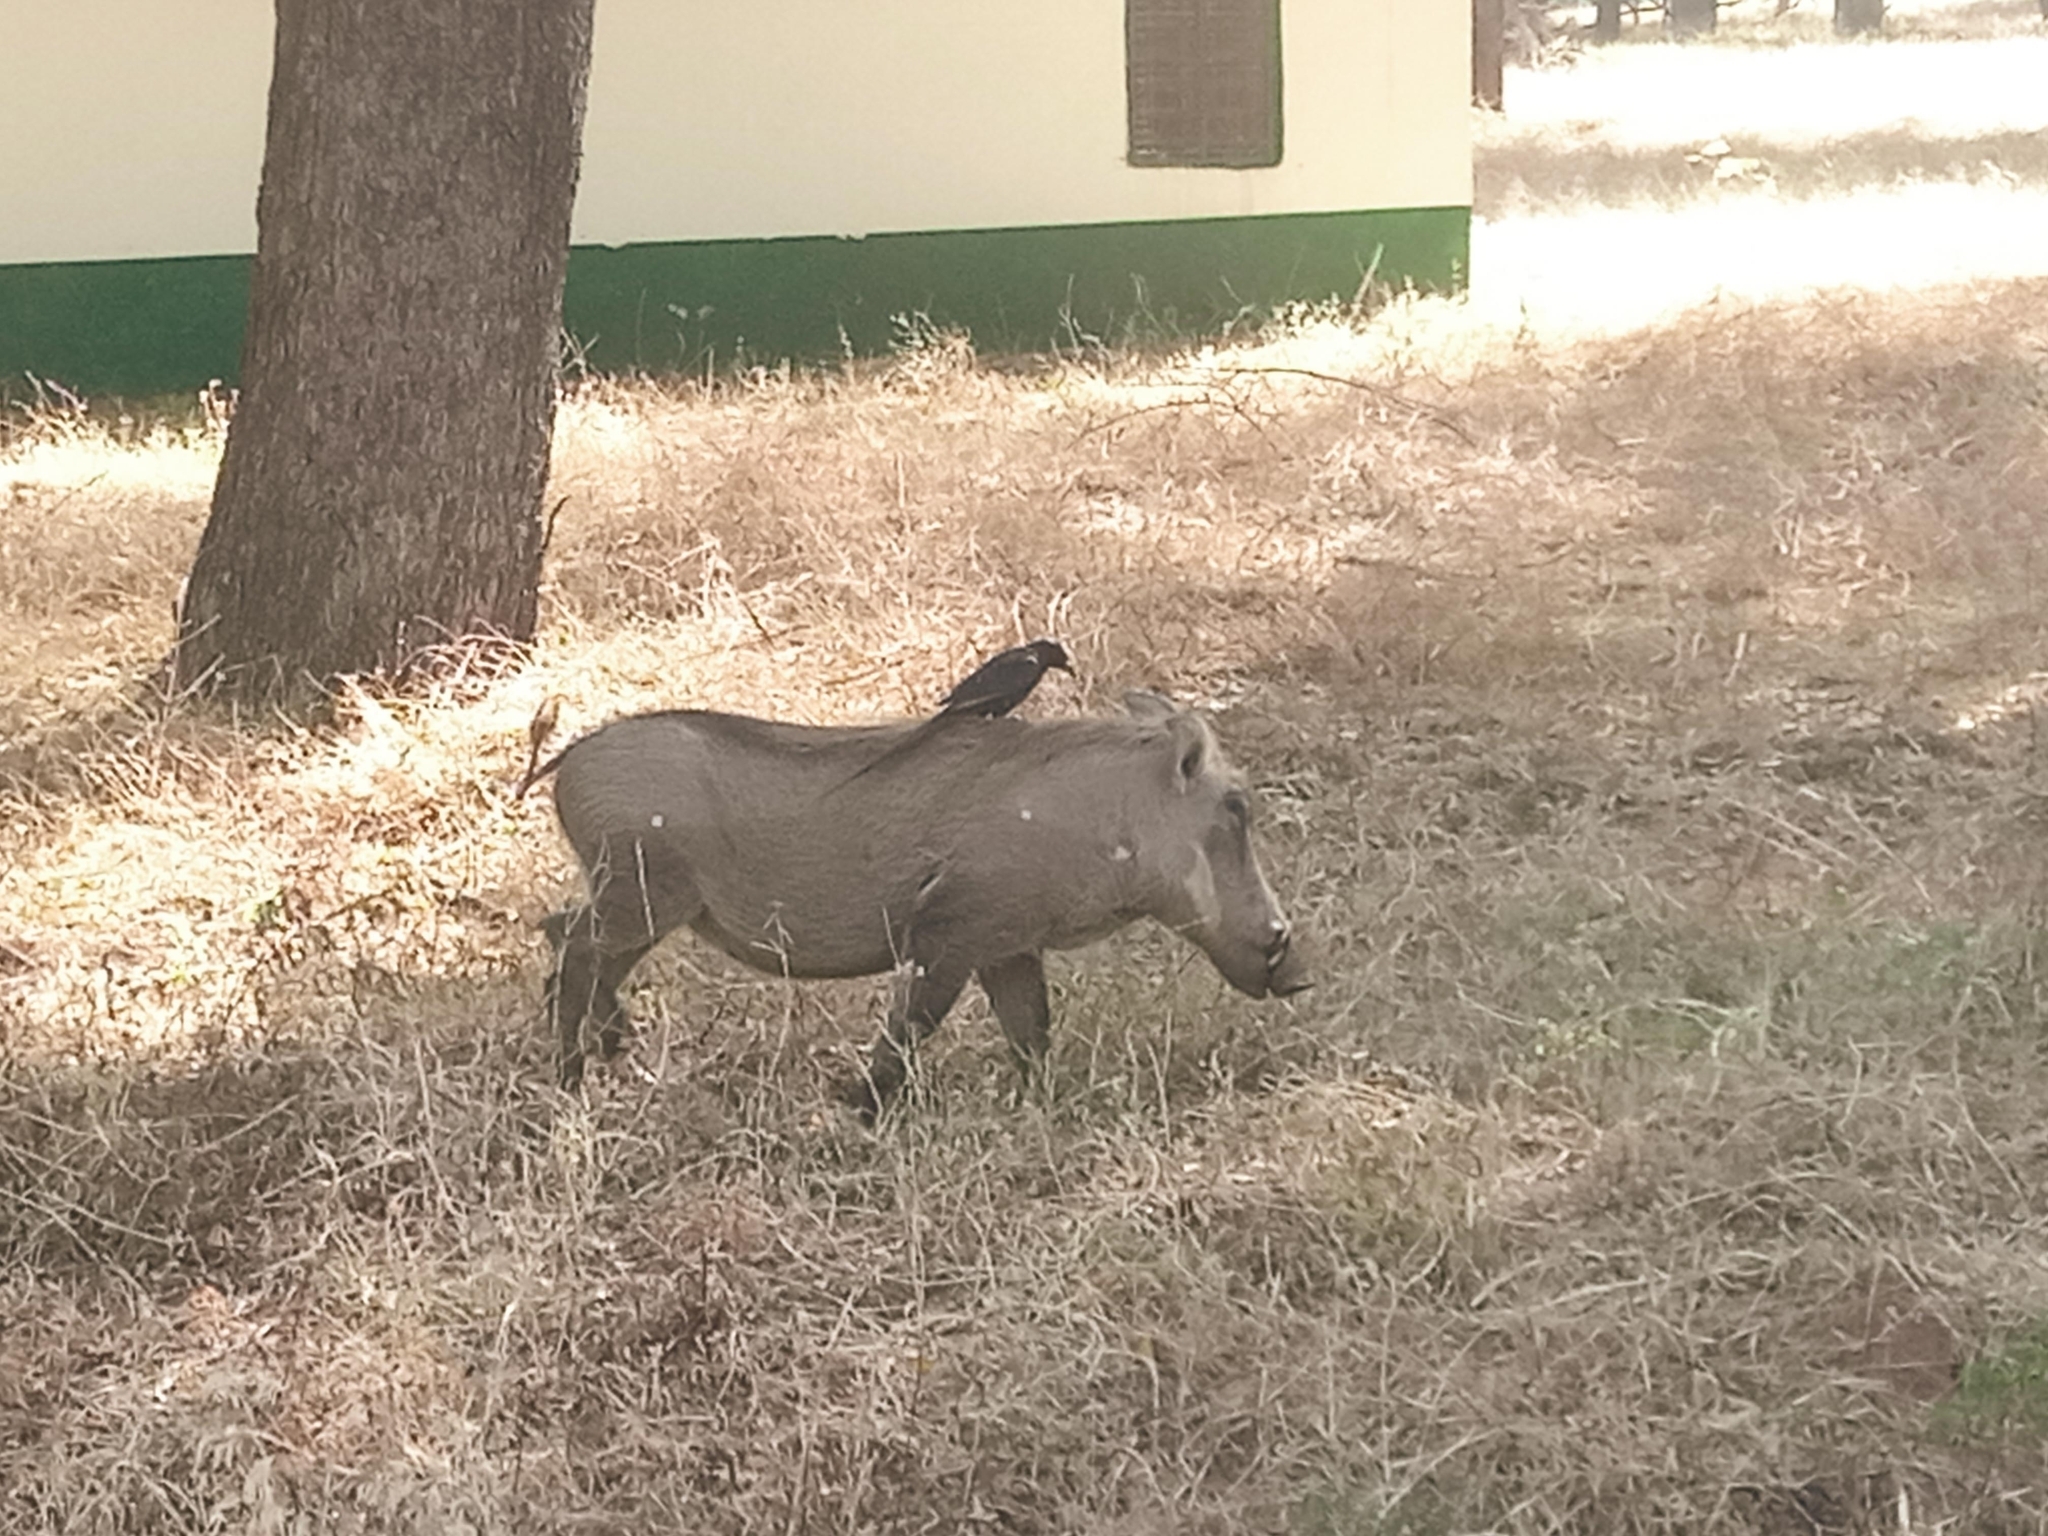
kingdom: Animalia
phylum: Chordata
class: Aves
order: Passeriformes
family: Corvidae
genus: Ptilostomus
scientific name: Ptilostomus afer
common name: Piapiac
